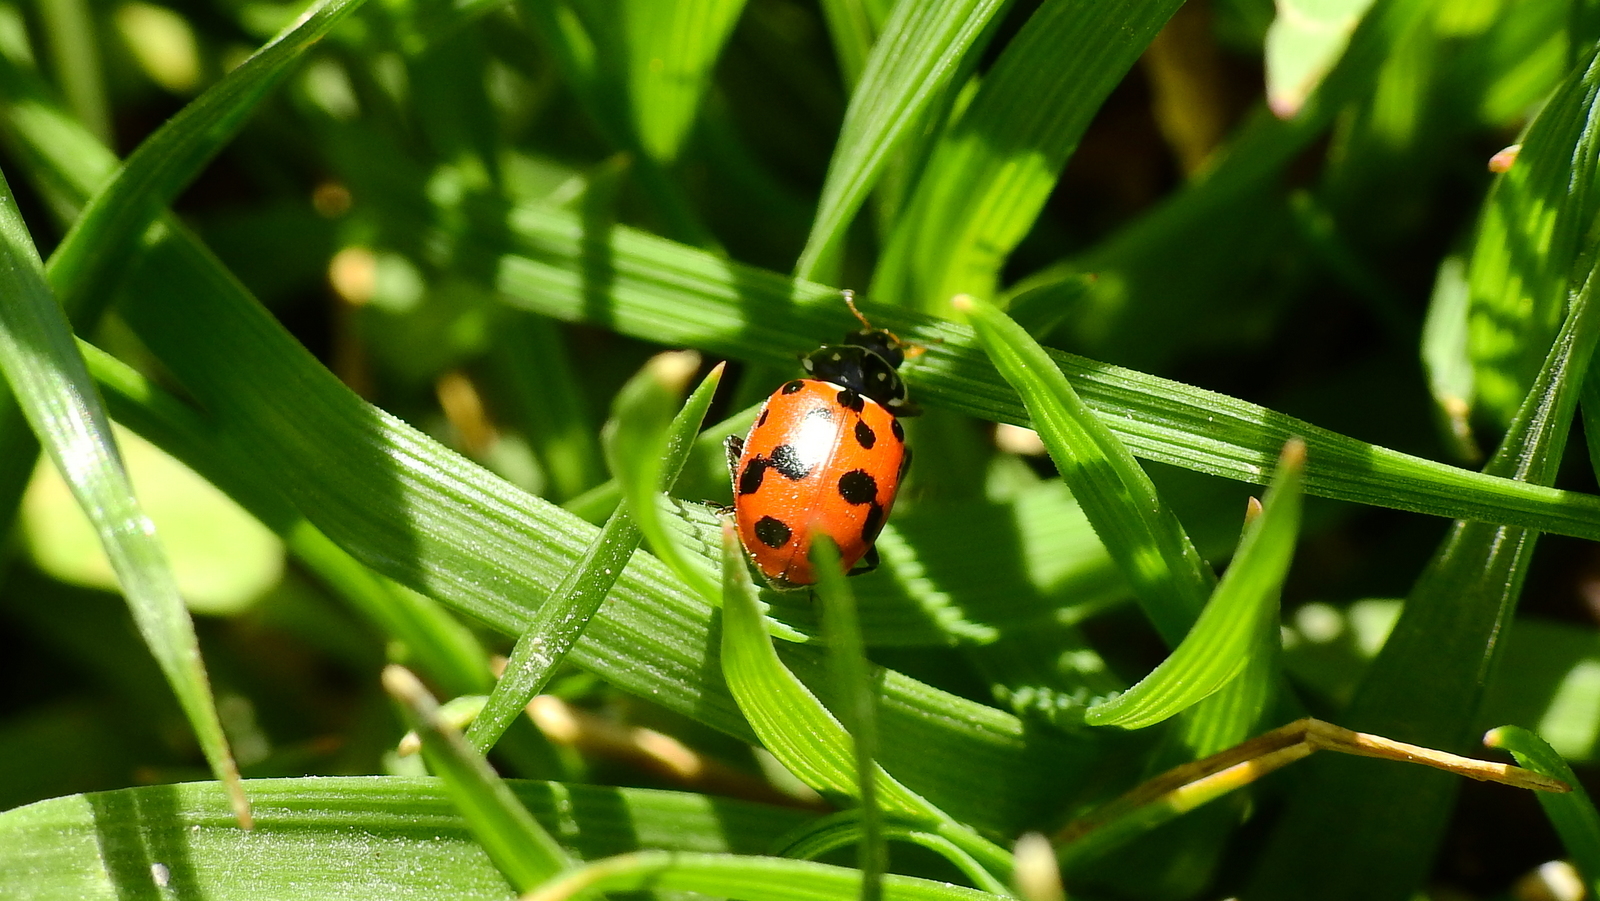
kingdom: Animalia
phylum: Arthropoda
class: Insecta
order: Coleoptera
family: Coccinellidae
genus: Hippodamia
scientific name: Hippodamia variegata
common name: Ladybird beetle
